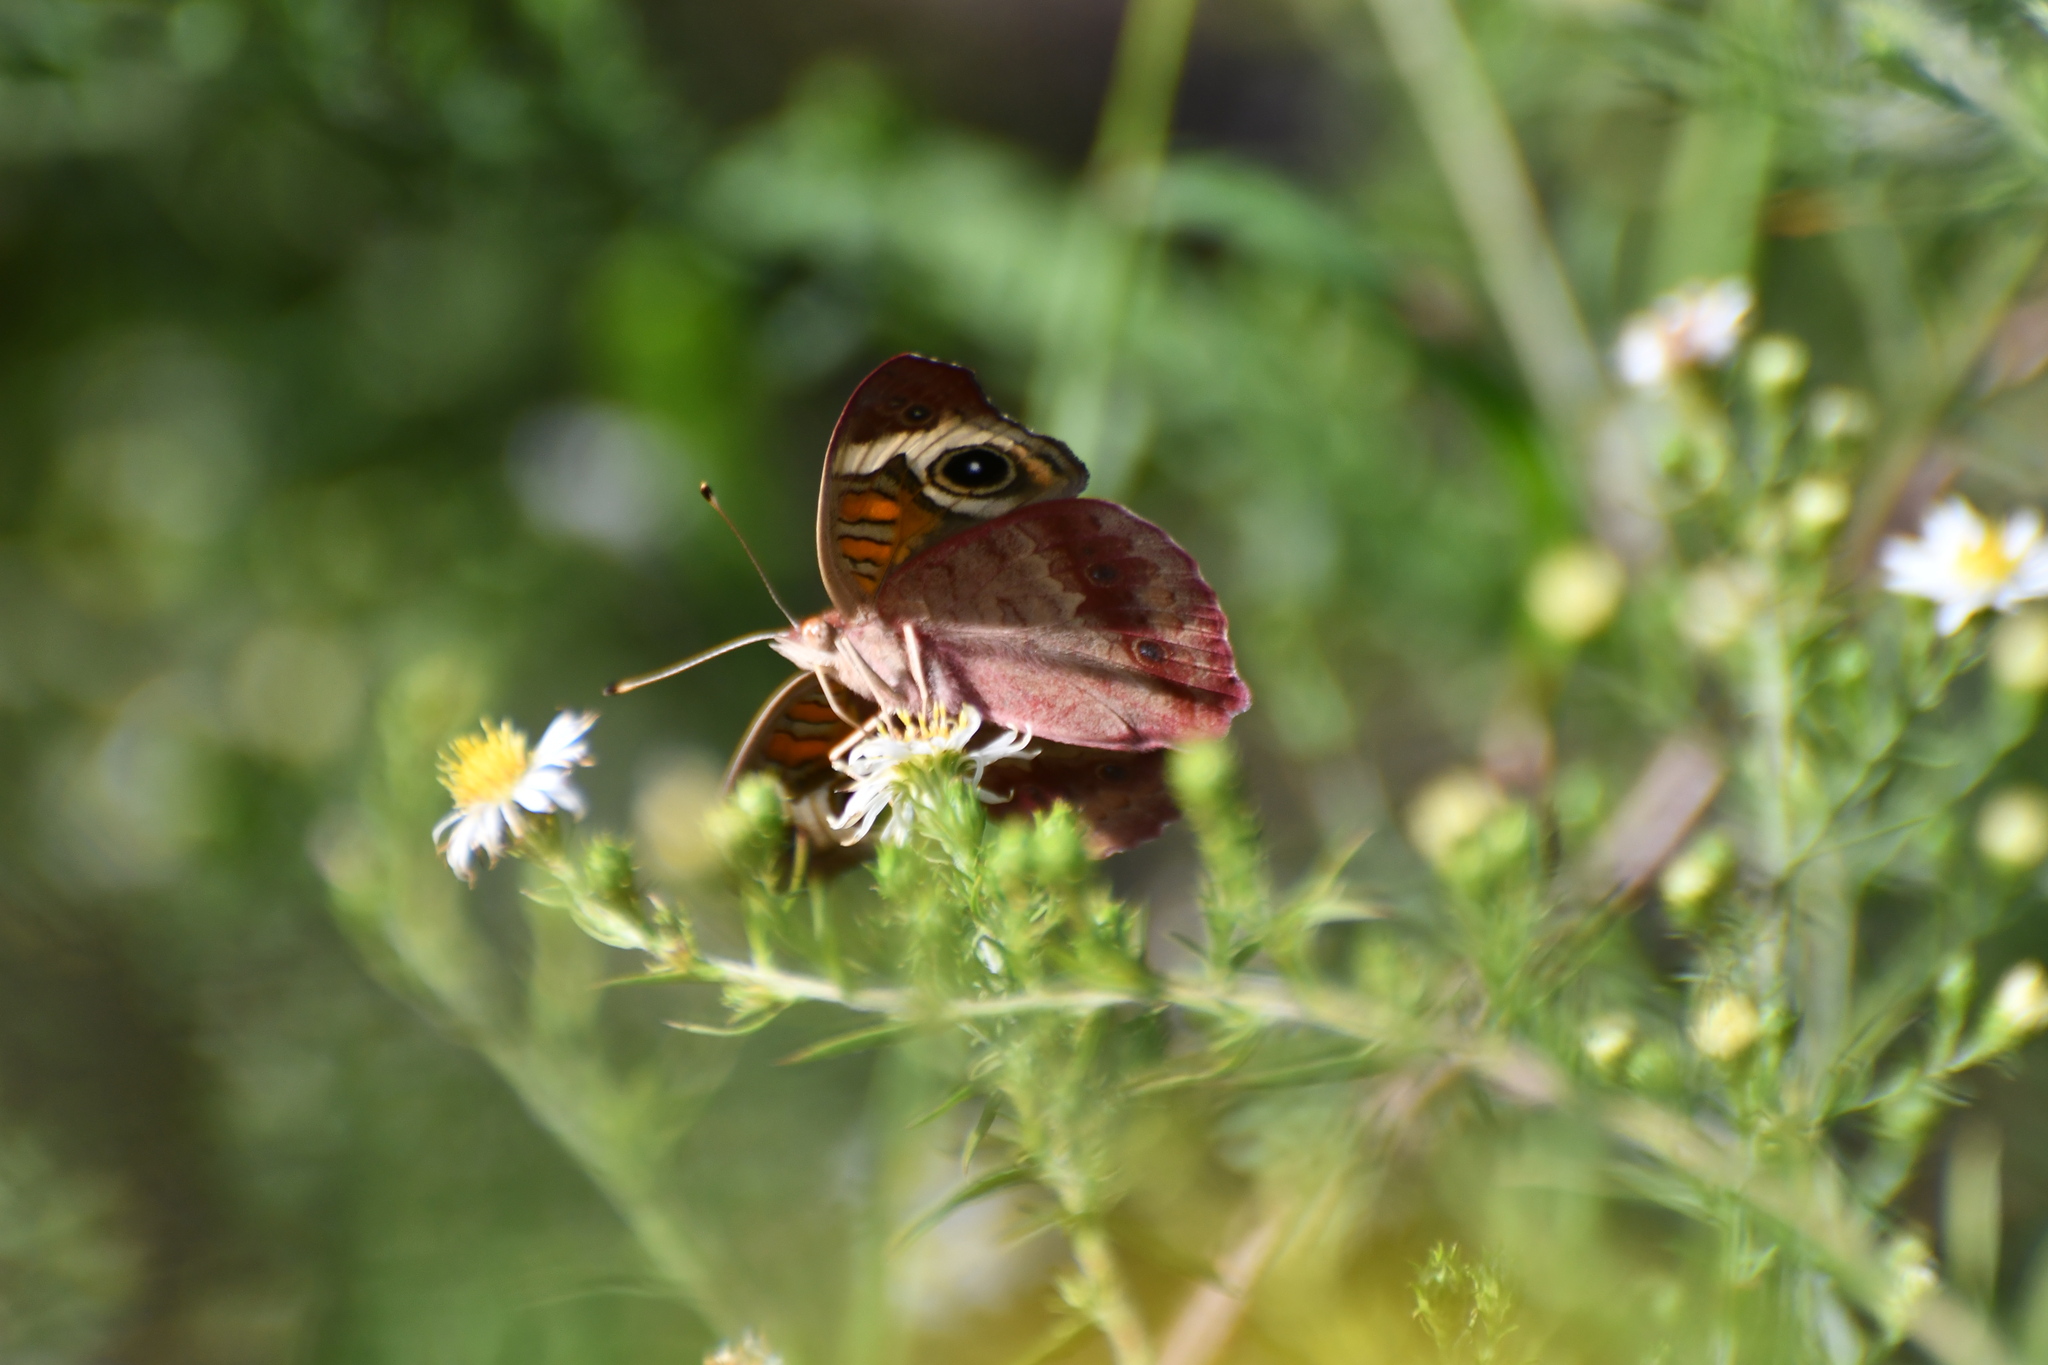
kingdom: Animalia
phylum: Arthropoda
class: Insecta
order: Lepidoptera
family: Nymphalidae
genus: Junonia
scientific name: Junonia coenia
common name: Common buckeye
